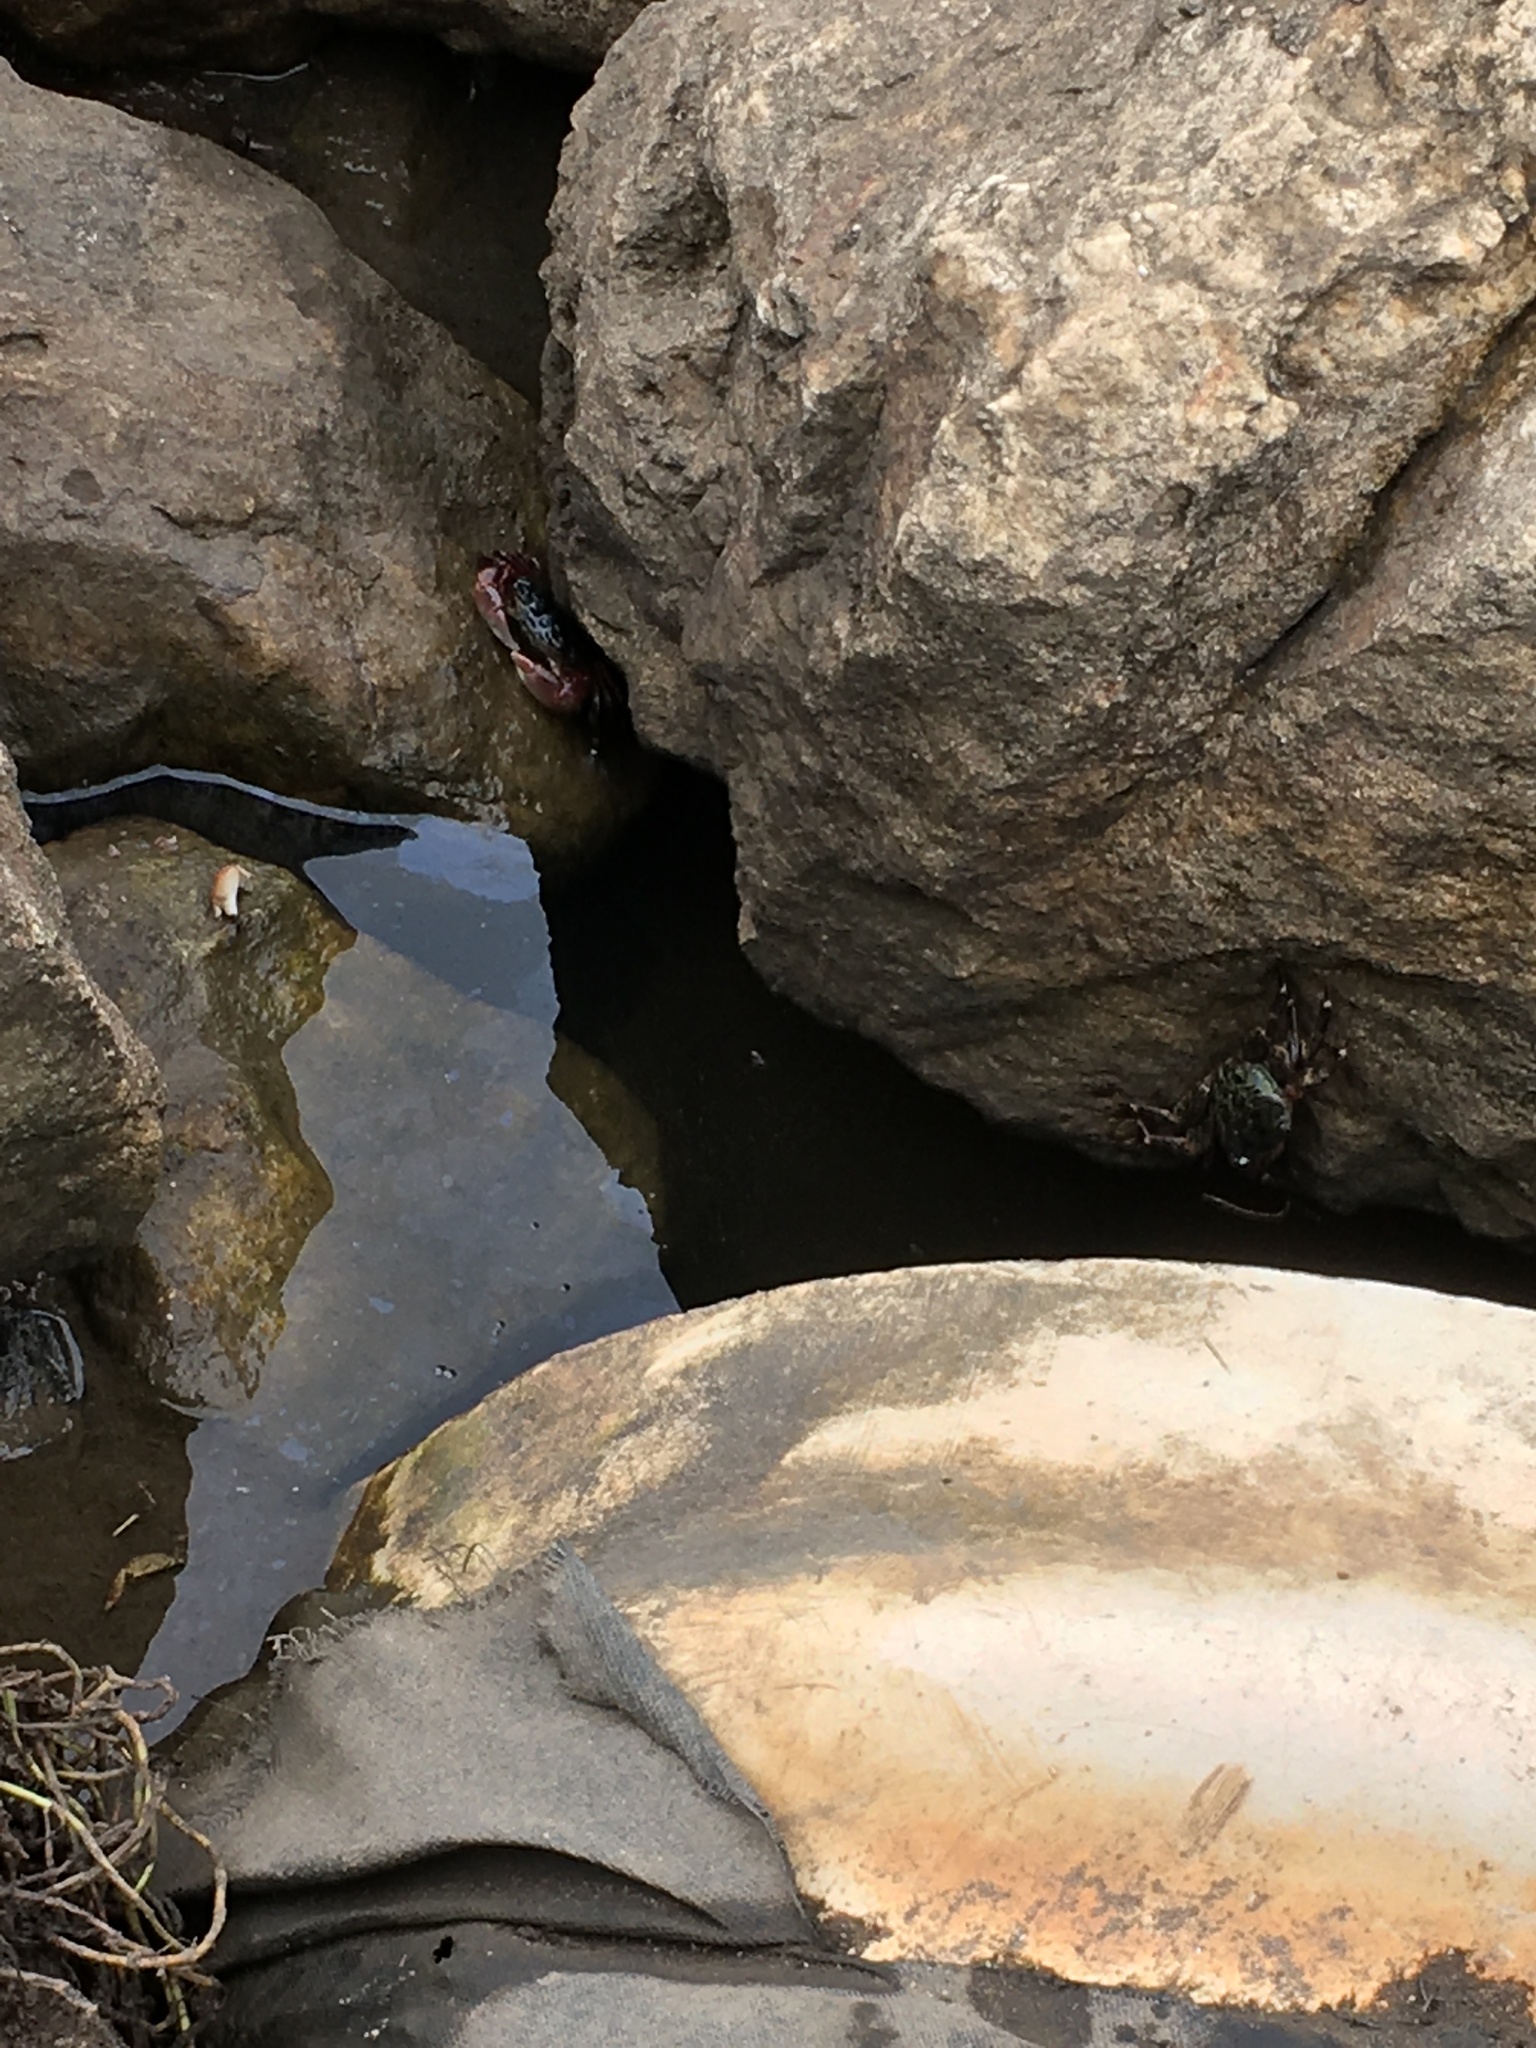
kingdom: Animalia
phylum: Arthropoda
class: Malacostraca
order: Decapoda
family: Grapsidae
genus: Pachygrapsus
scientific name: Pachygrapsus crassipes
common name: Striped shore crab
